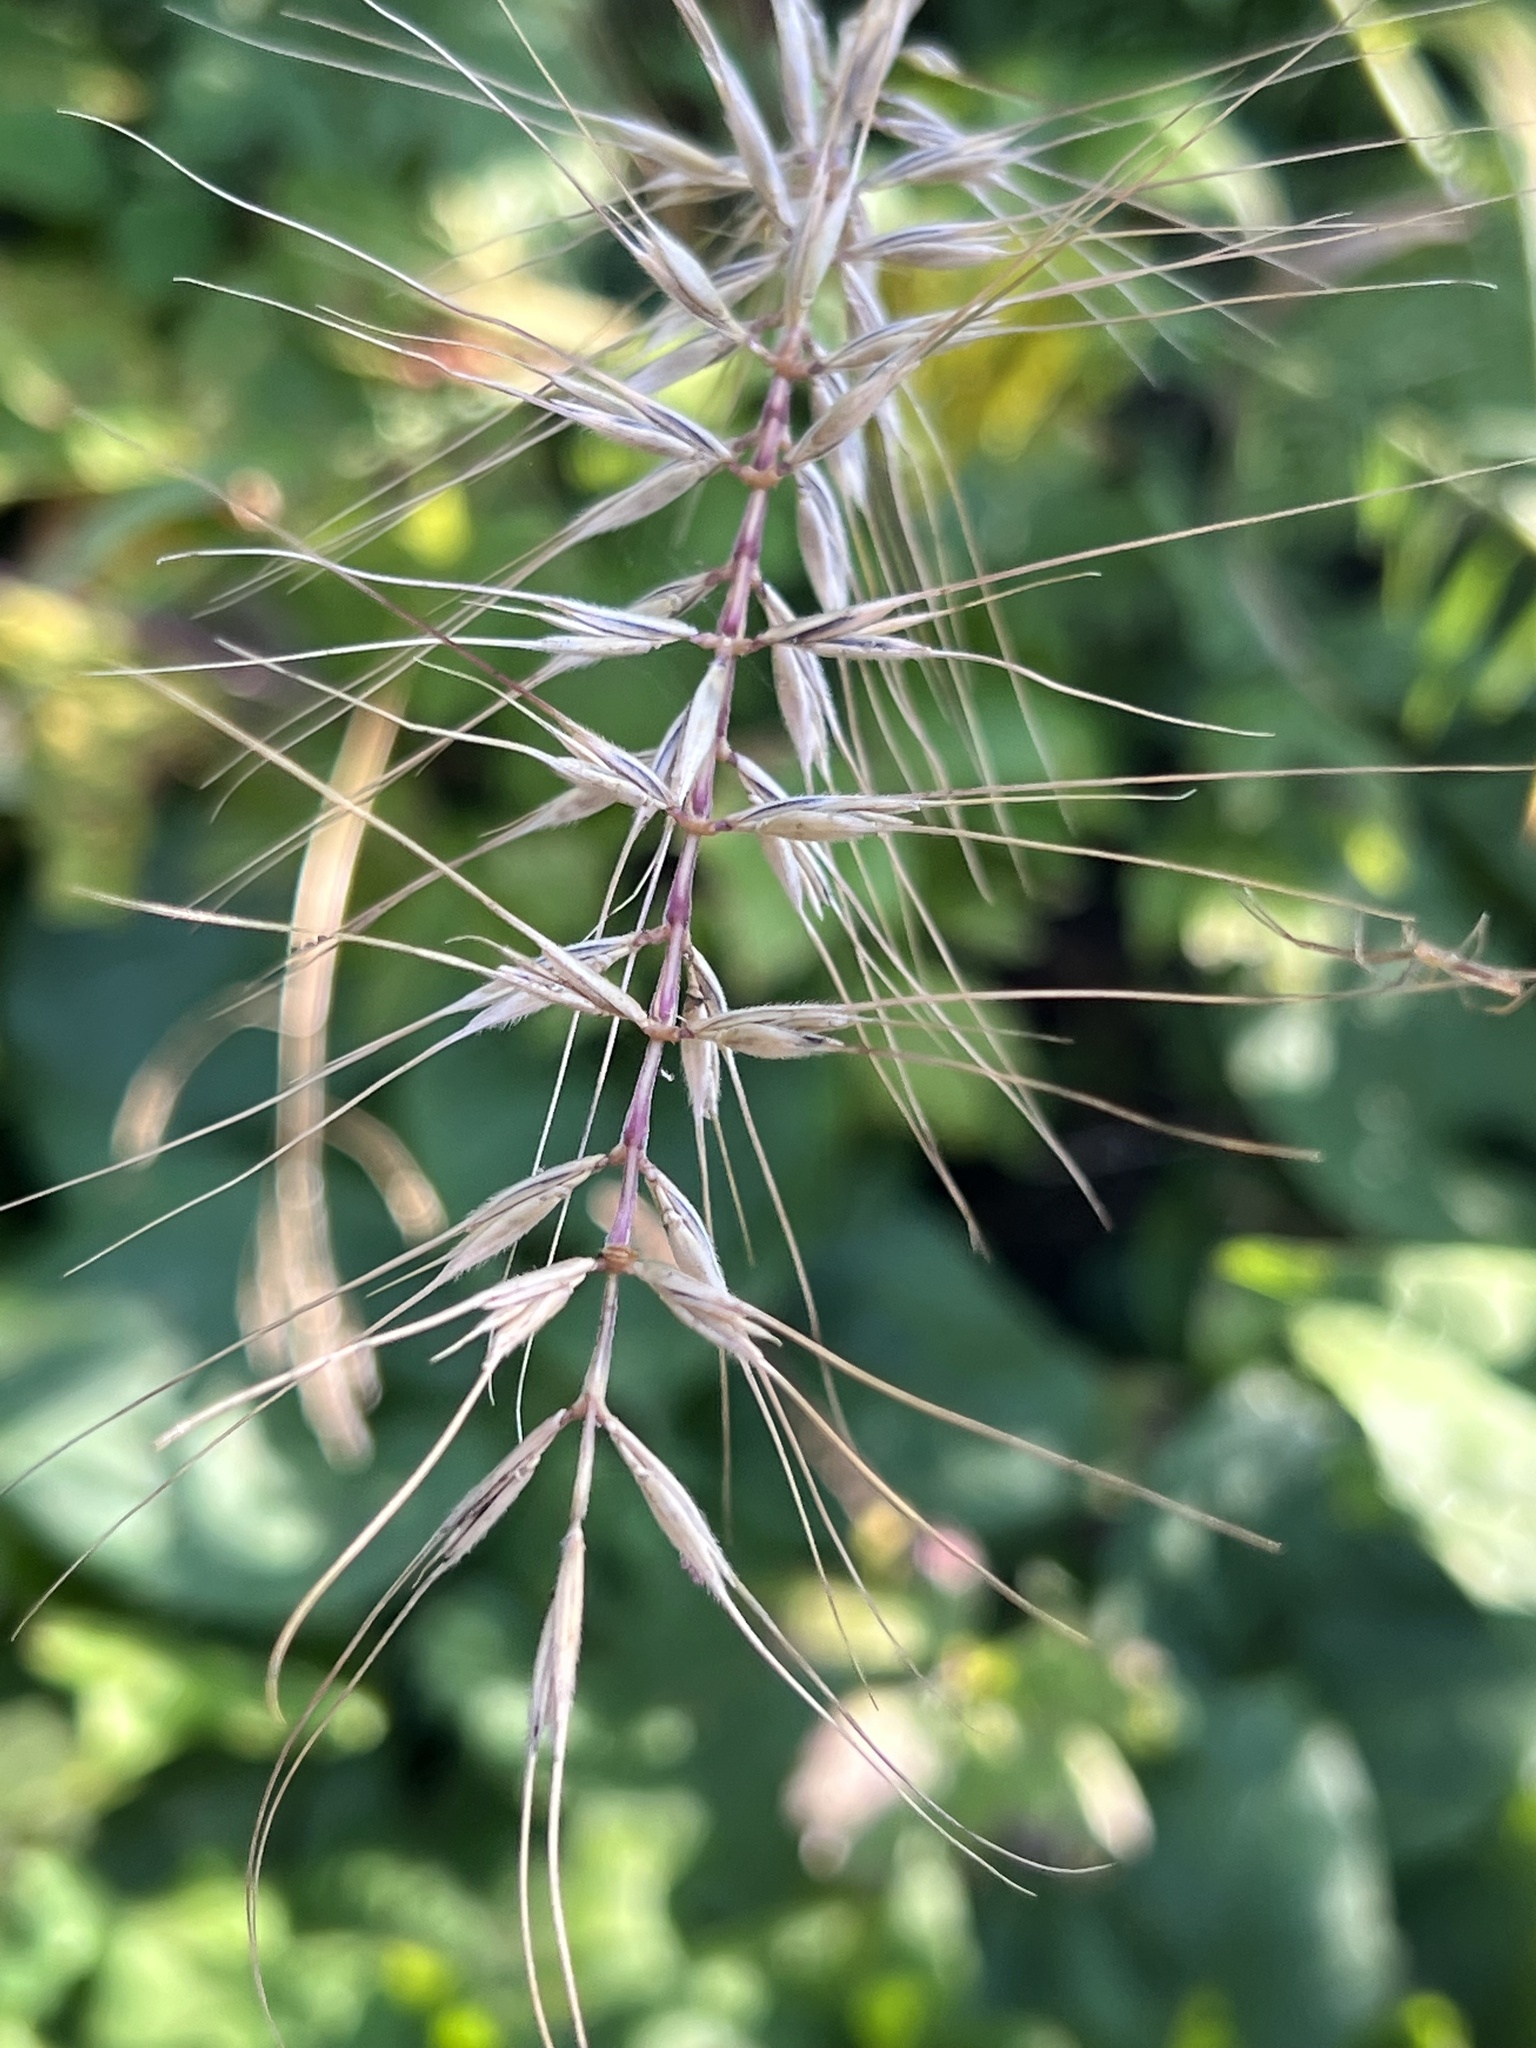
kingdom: Plantae
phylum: Tracheophyta
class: Liliopsida
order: Poales
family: Poaceae
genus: Elymus
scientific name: Elymus hystrix
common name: Bottlebrush grass
